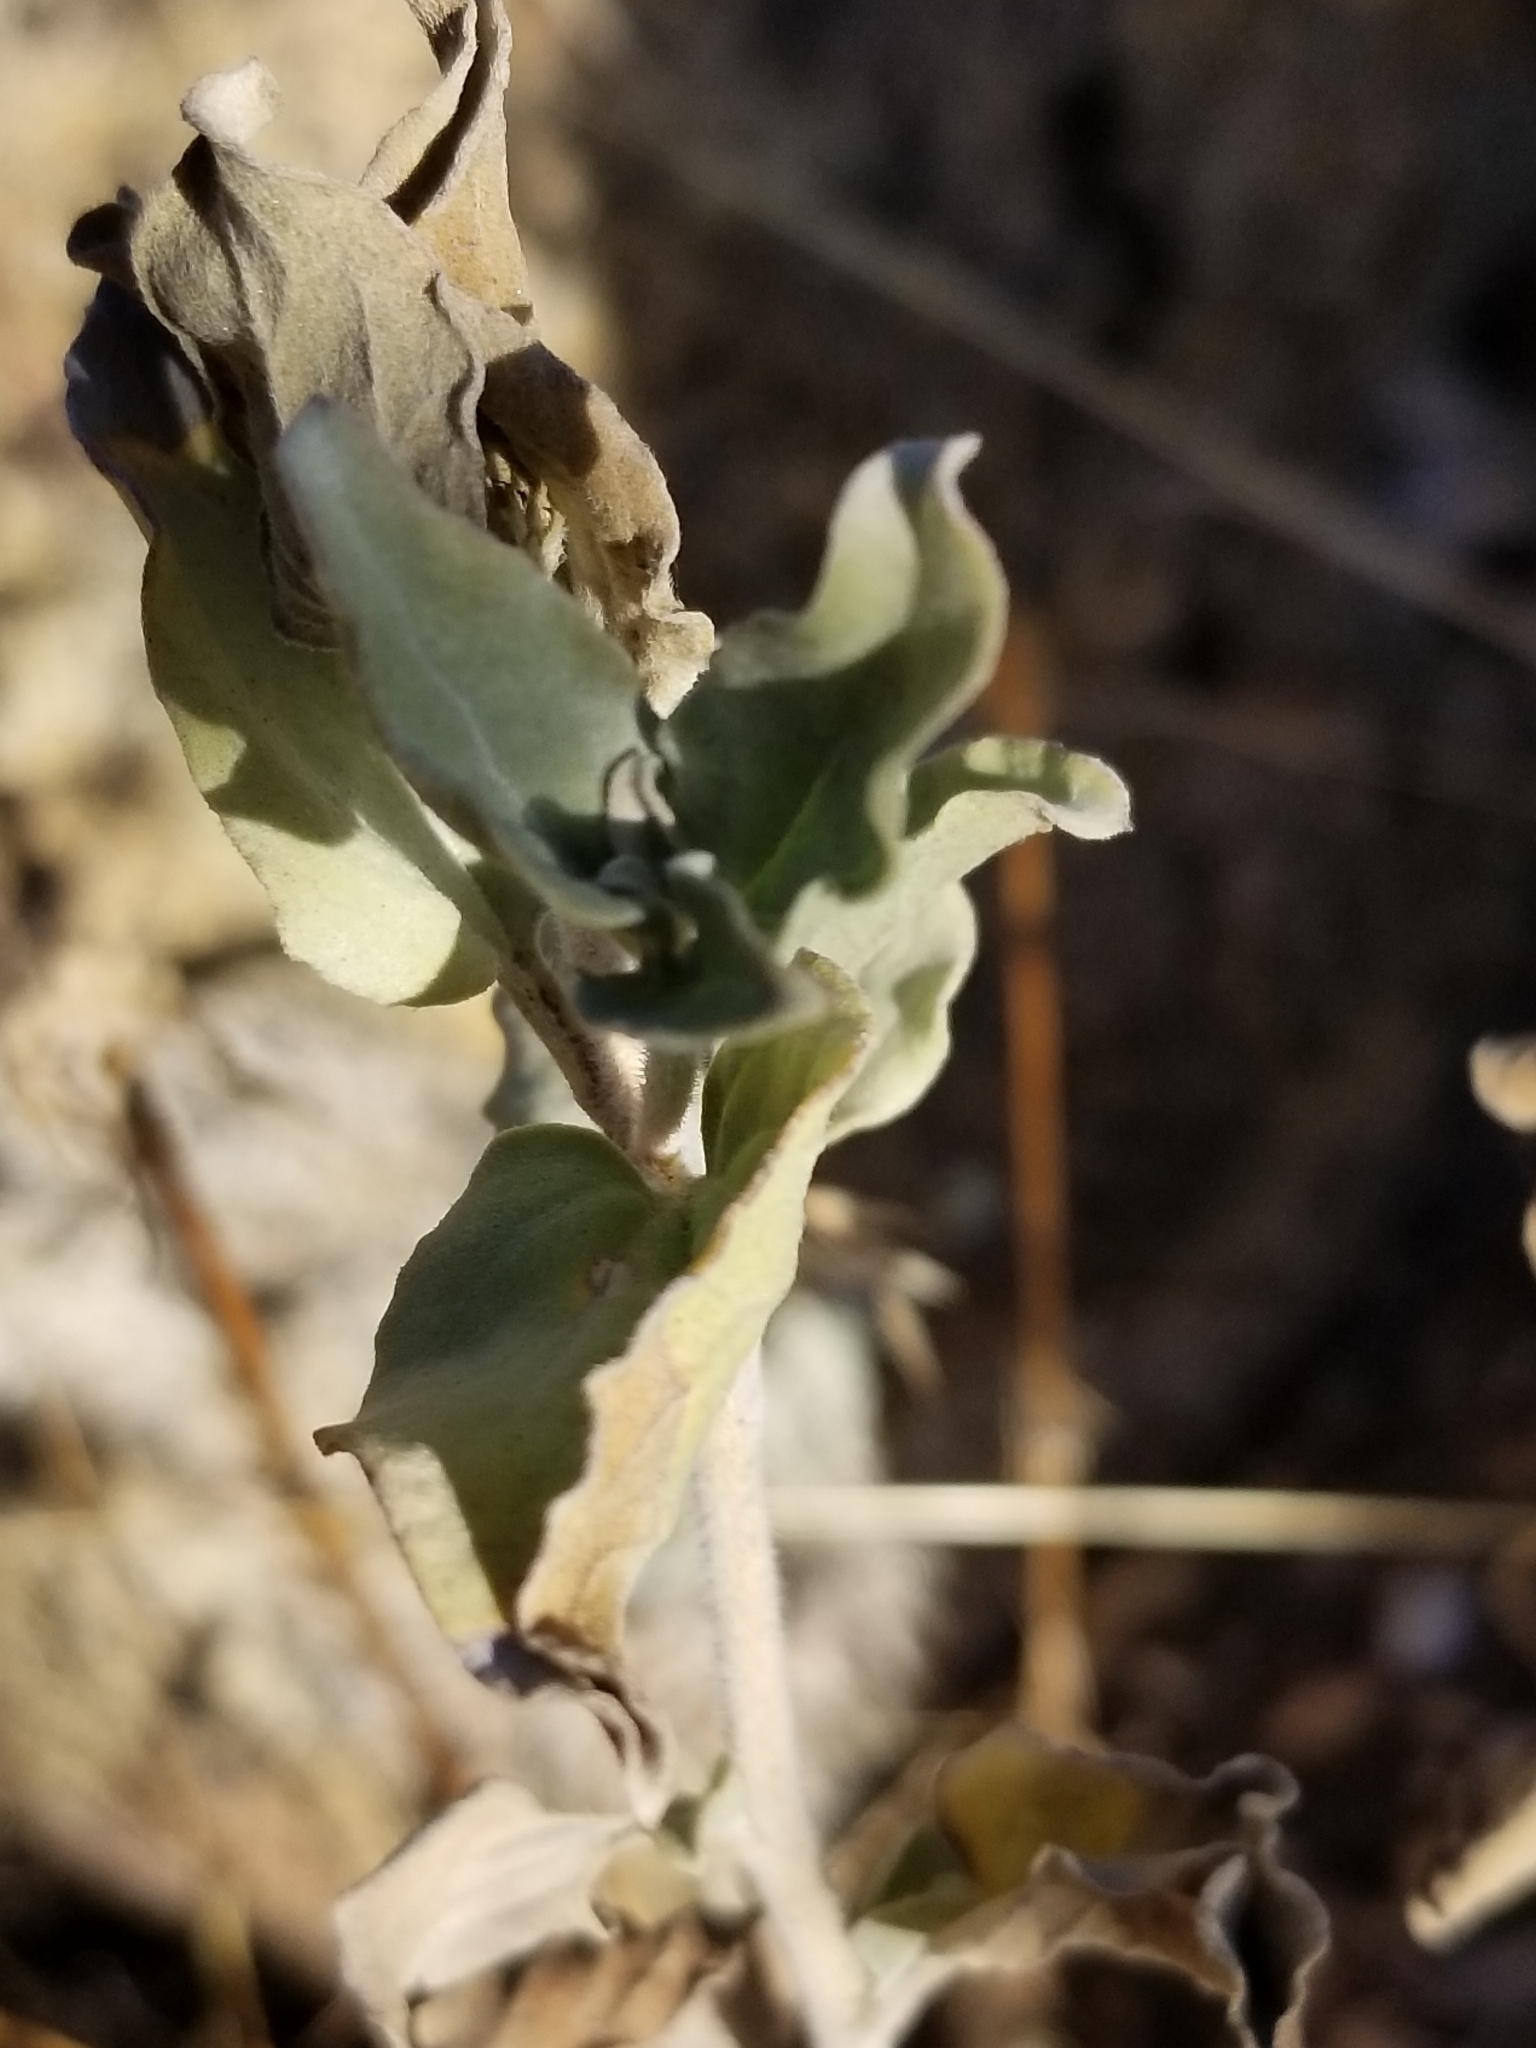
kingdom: Plantae
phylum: Tracheophyta
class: Magnoliopsida
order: Asterales
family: Asteraceae
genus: Encelia
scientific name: Encelia actoni
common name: Acton encelia
